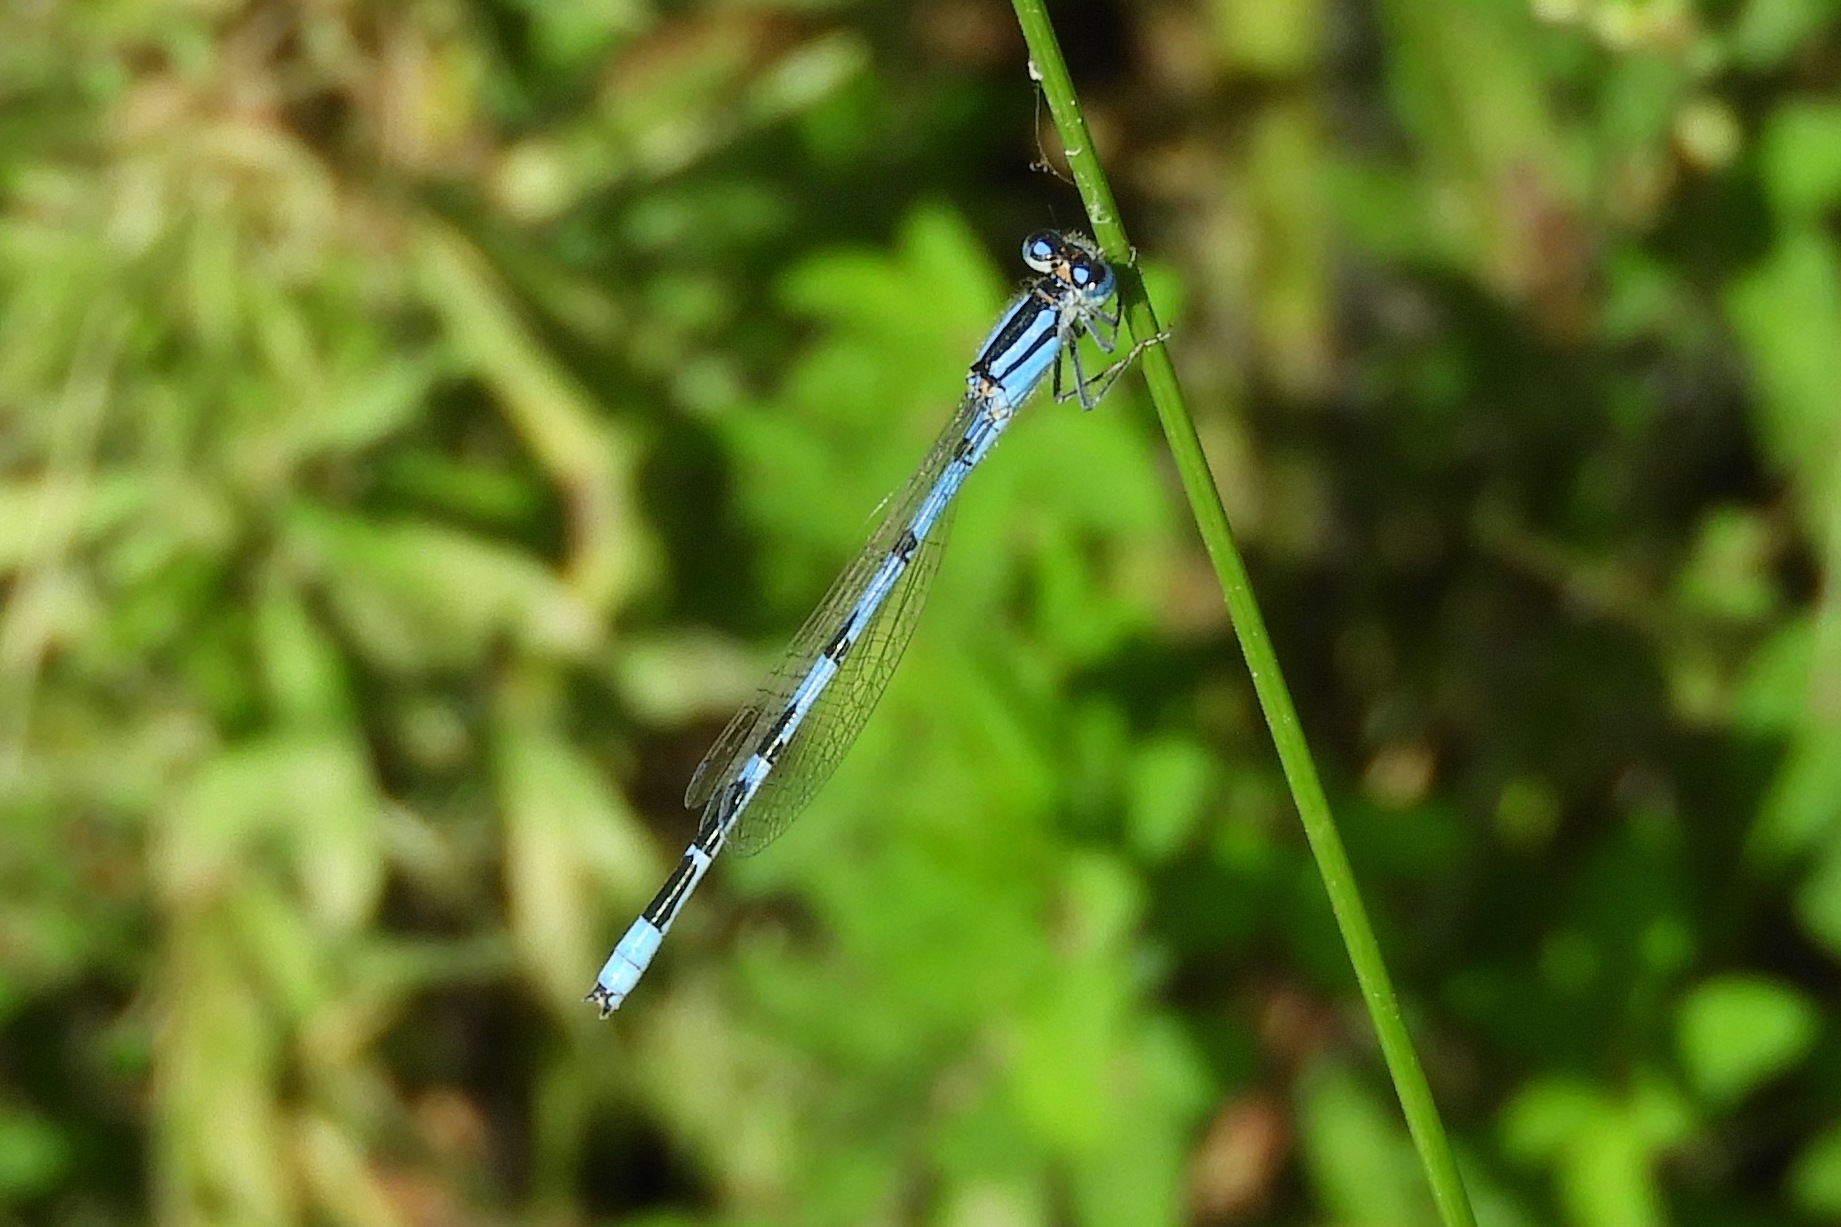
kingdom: Animalia
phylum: Arthropoda
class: Insecta
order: Odonata
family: Coenagrionidae
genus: Enallagma
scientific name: Enallagma civile
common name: Damselfly
